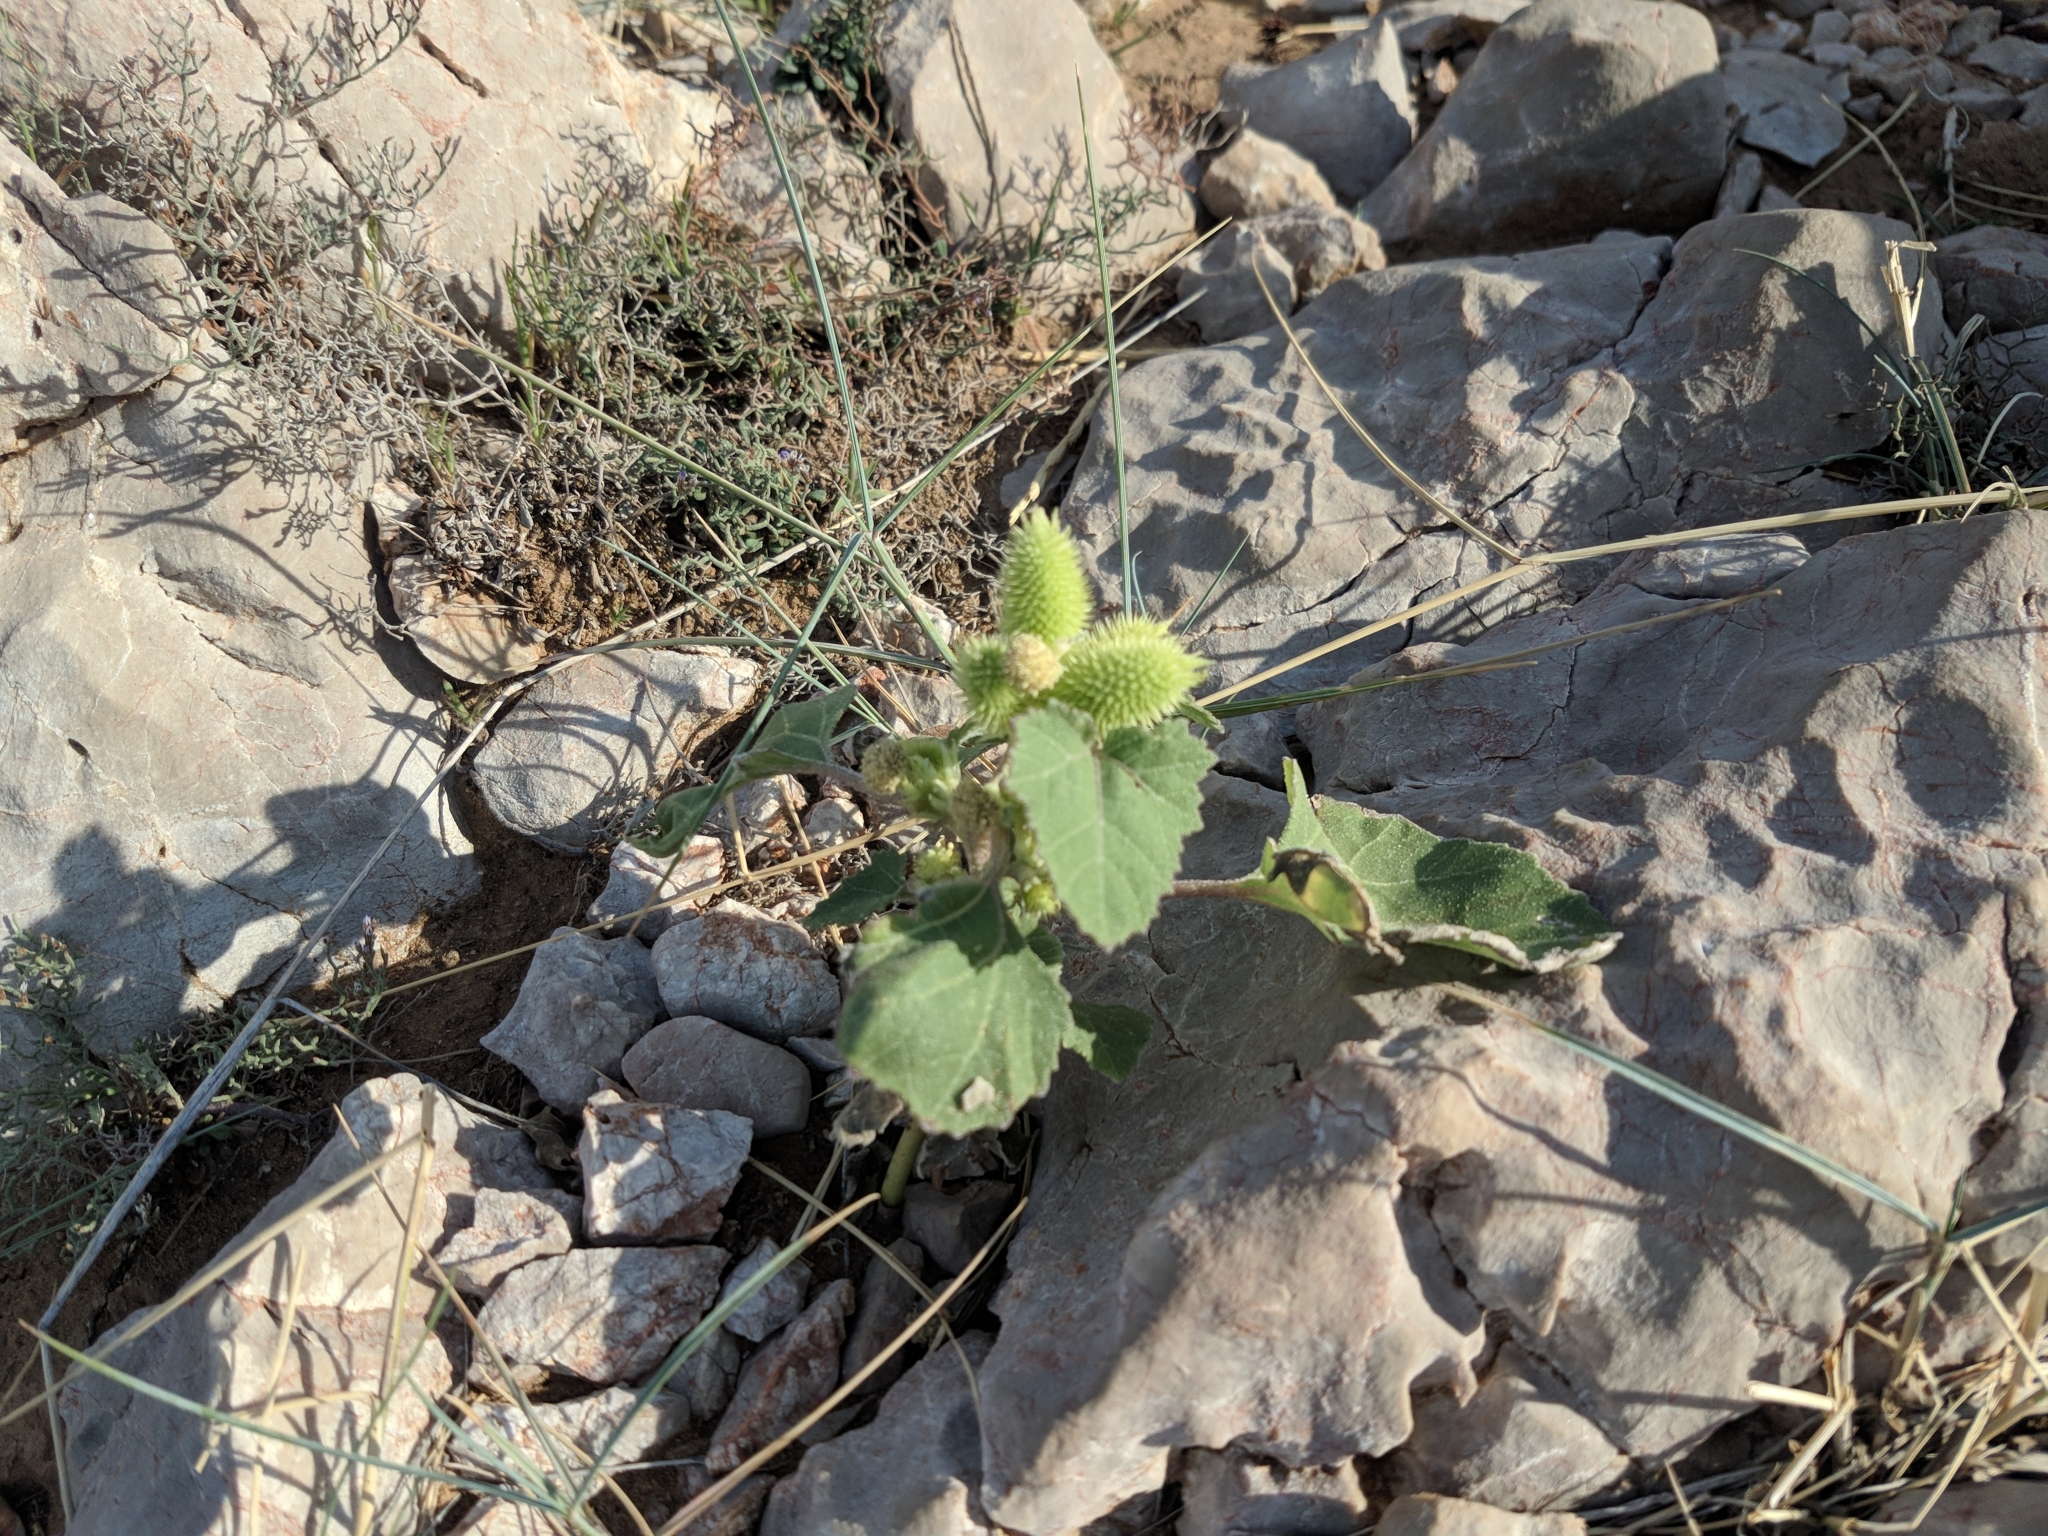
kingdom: Plantae
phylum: Tracheophyta
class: Magnoliopsida
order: Asterales
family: Asteraceae
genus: Xanthium
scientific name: Xanthium orientale
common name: Californian burr
